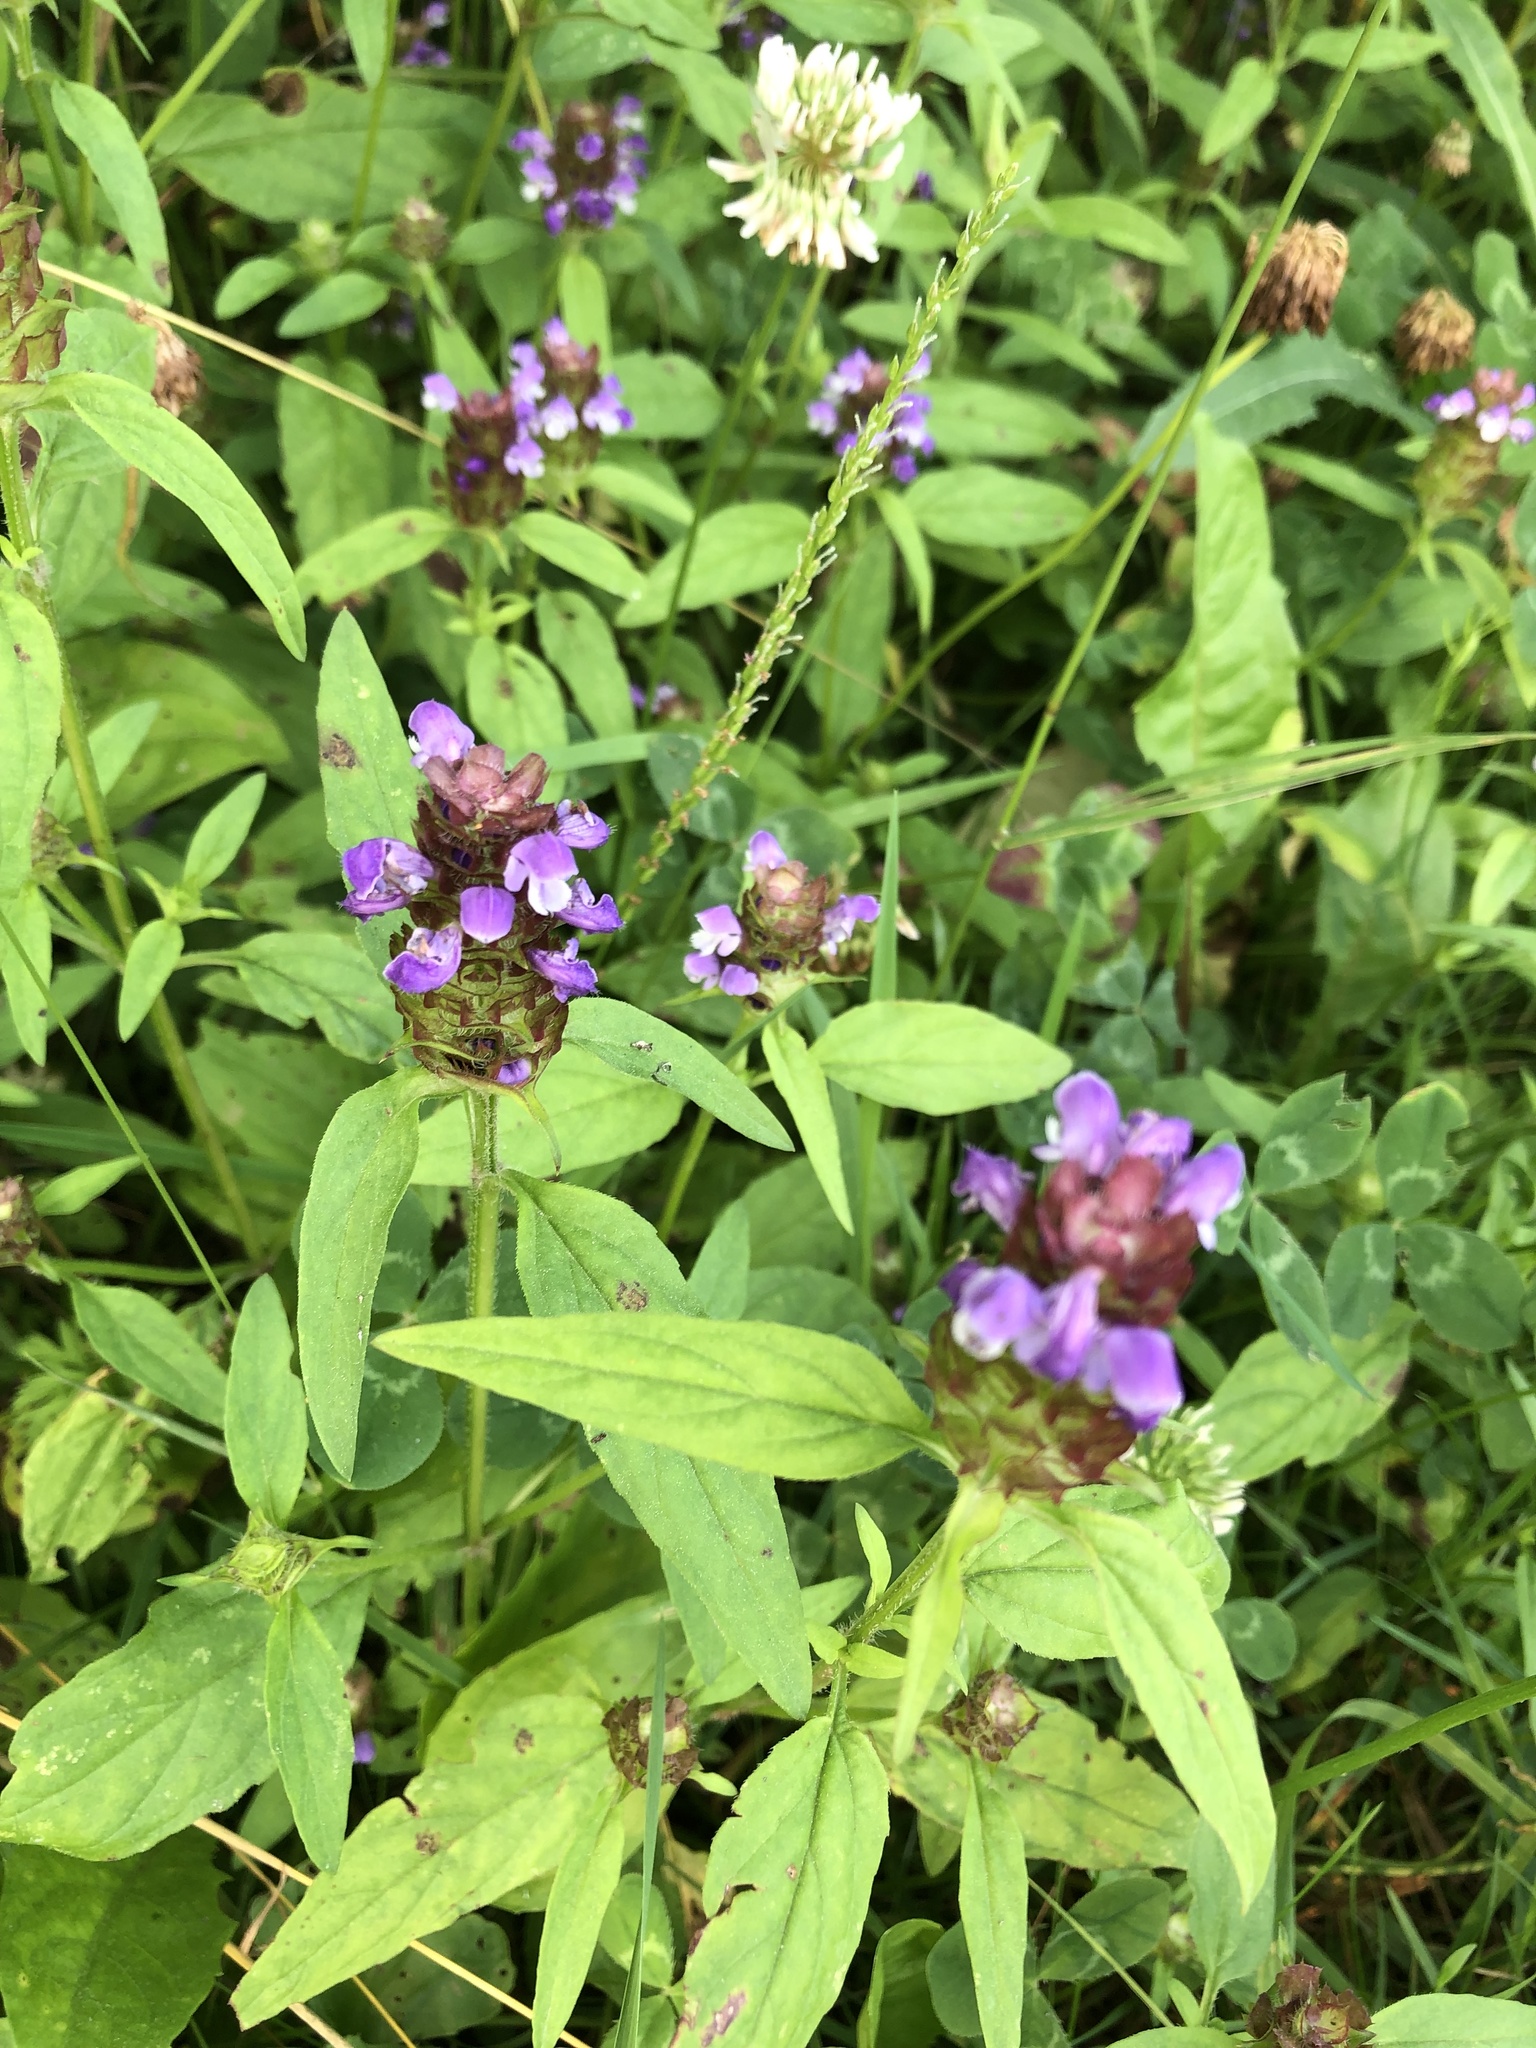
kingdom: Plantae
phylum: Tracheophyta
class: Magnoliopsida
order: Lamiales
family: Lamiaceae
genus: Prunella
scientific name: Prunella vulgaris
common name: Heal-all
